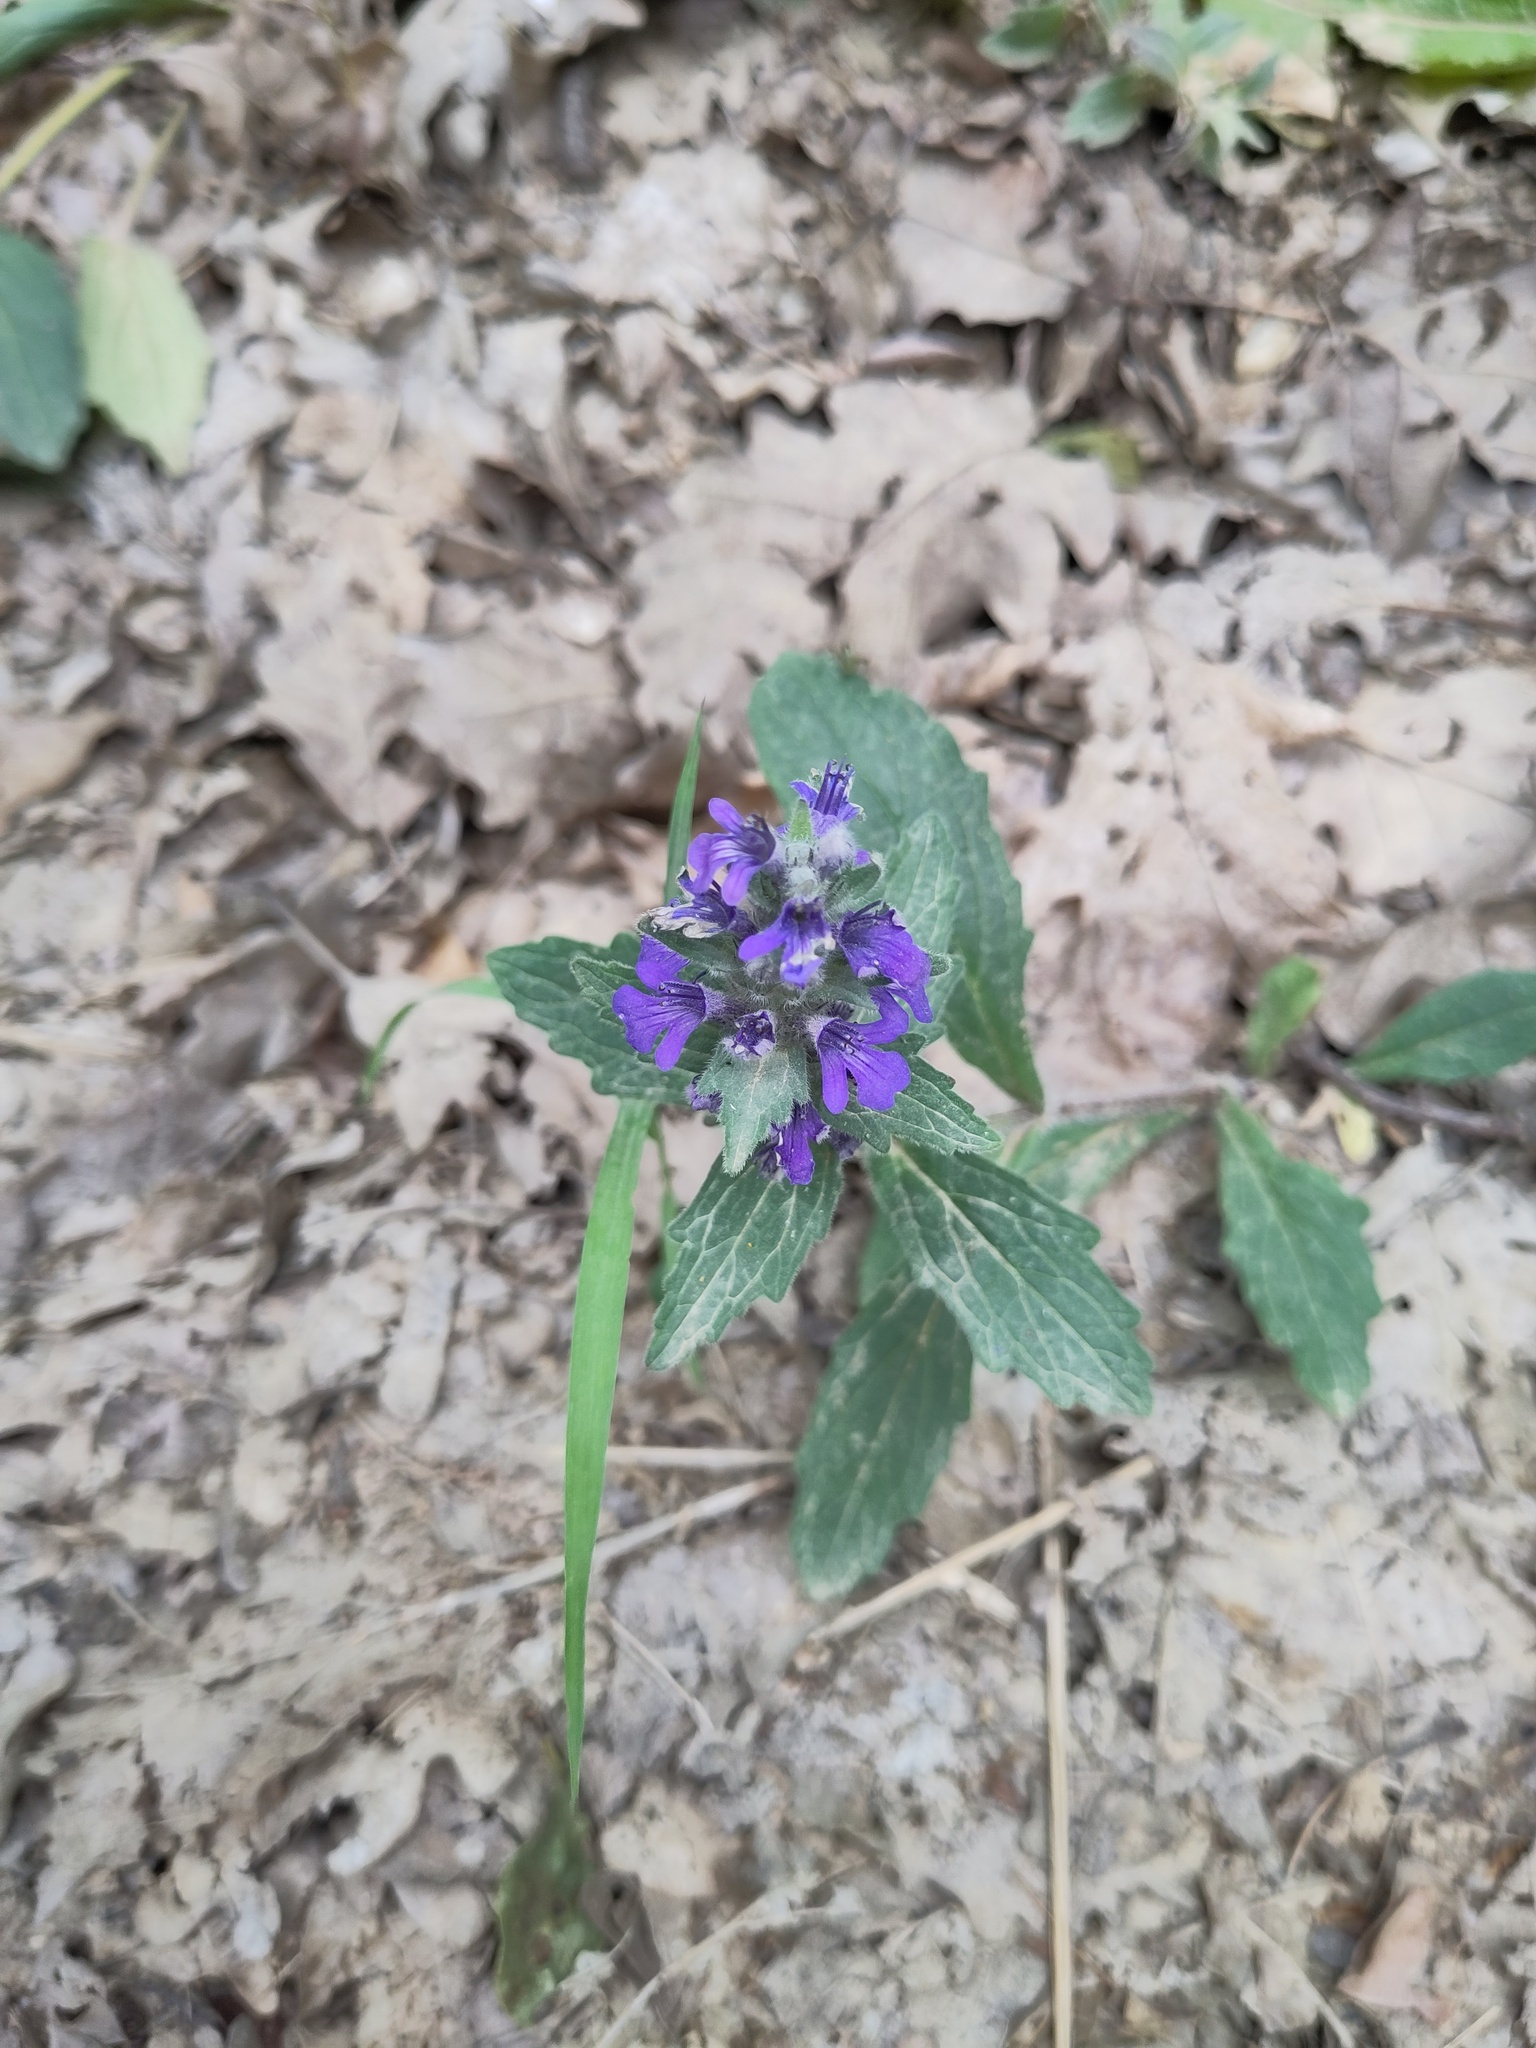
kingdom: Plantae
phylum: Tracheophyta
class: Magnoliopsida
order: Lamiales
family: Lamiaceae
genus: Ajuga
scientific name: Ajuga genevensis
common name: Blue bugle
